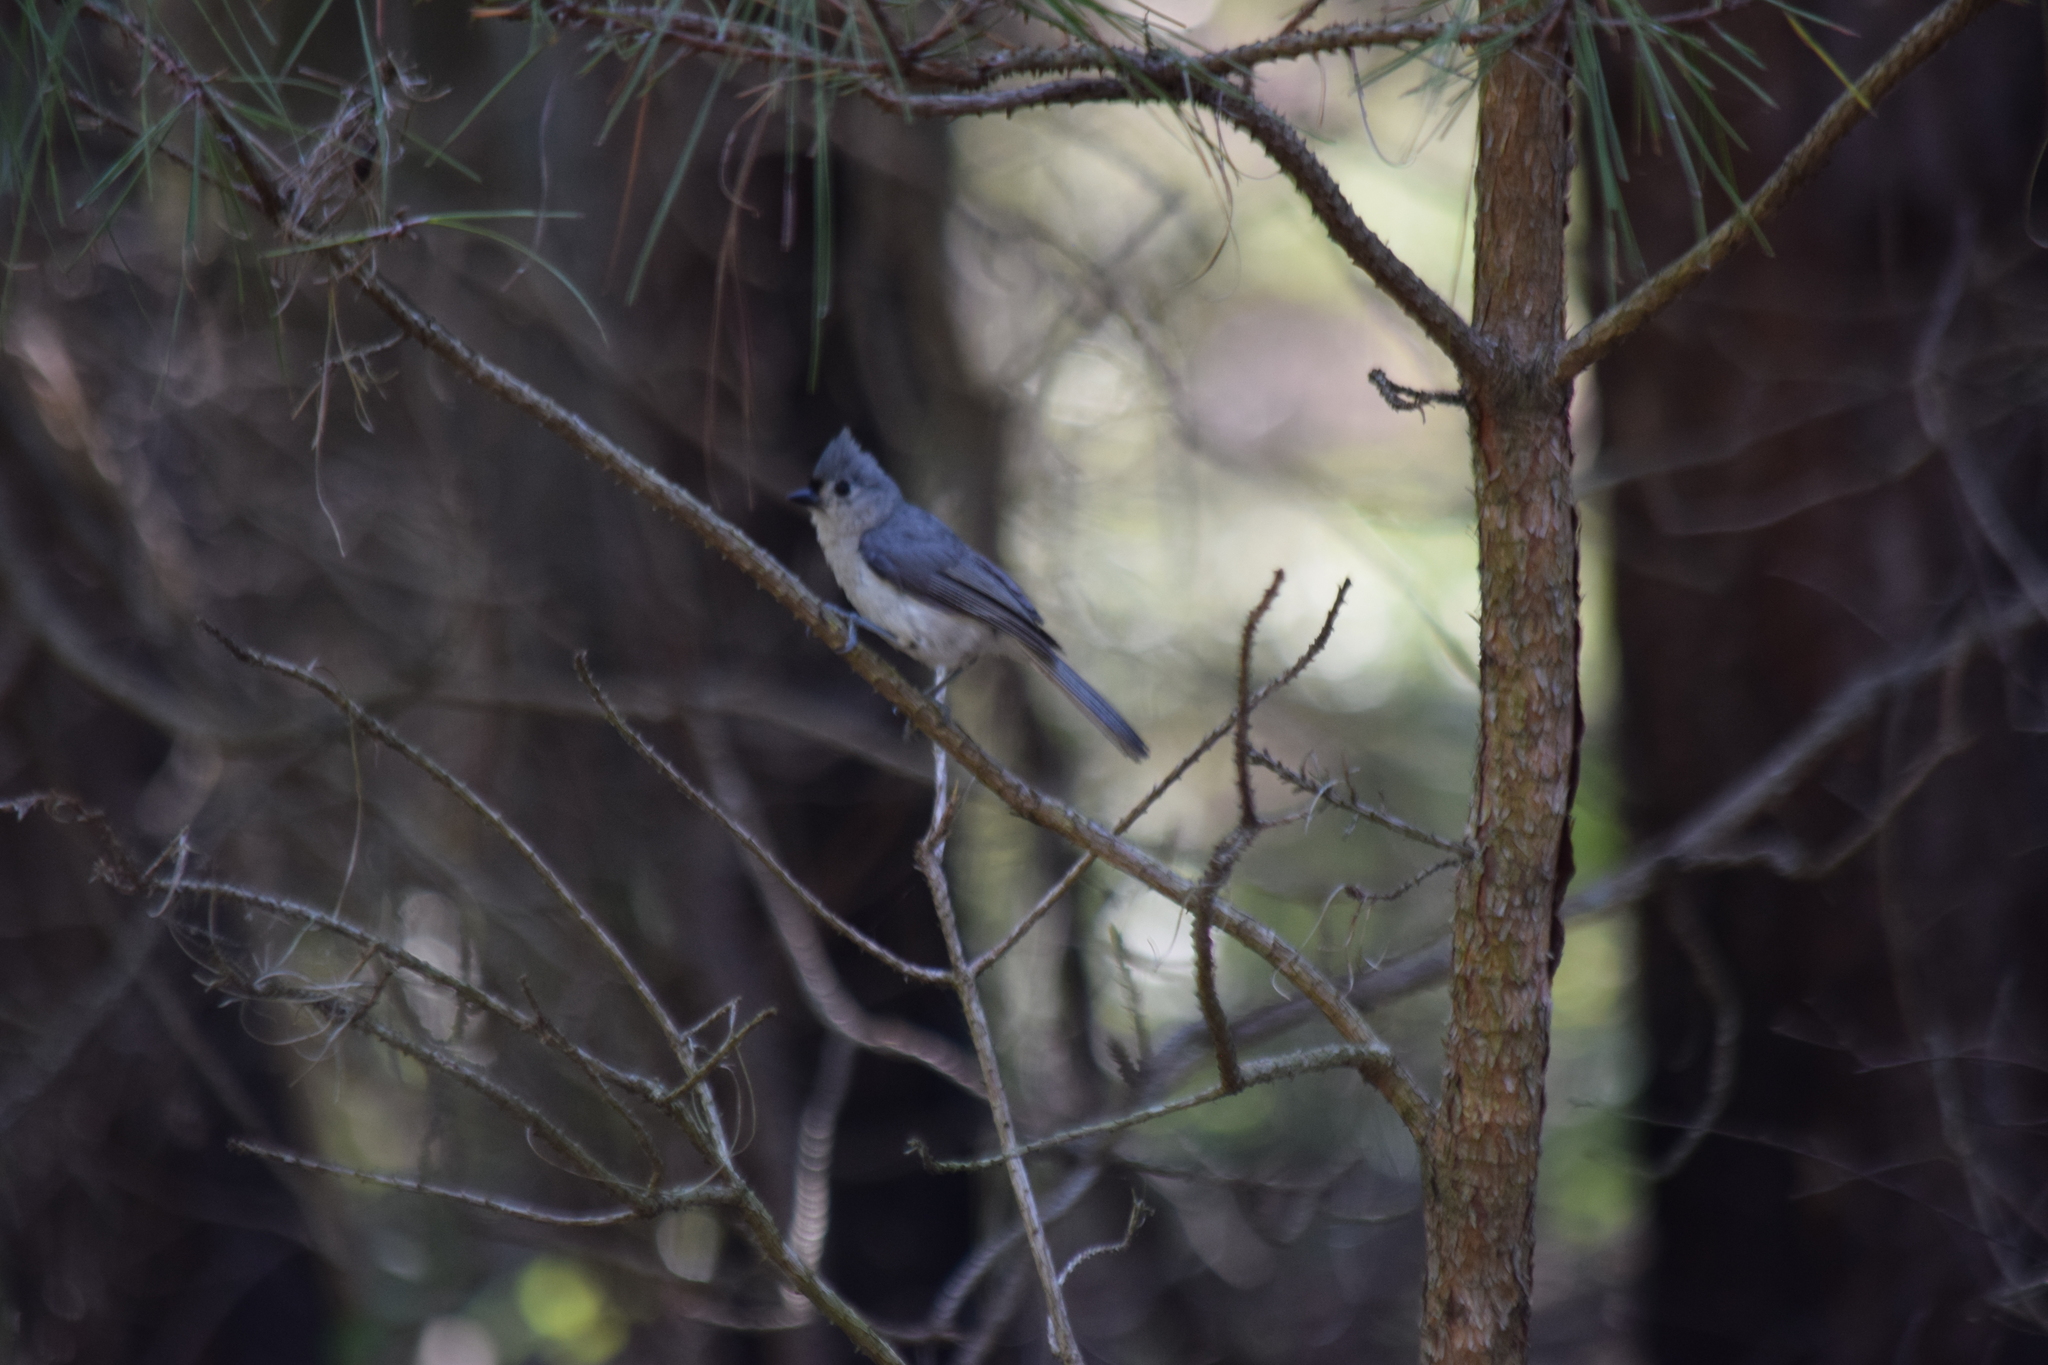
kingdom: Animalia
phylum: Chordata
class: Aves
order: Passeriformes
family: Paridae
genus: Baeolophus
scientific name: Baeolophus bicolor
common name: Tufted titmouse
